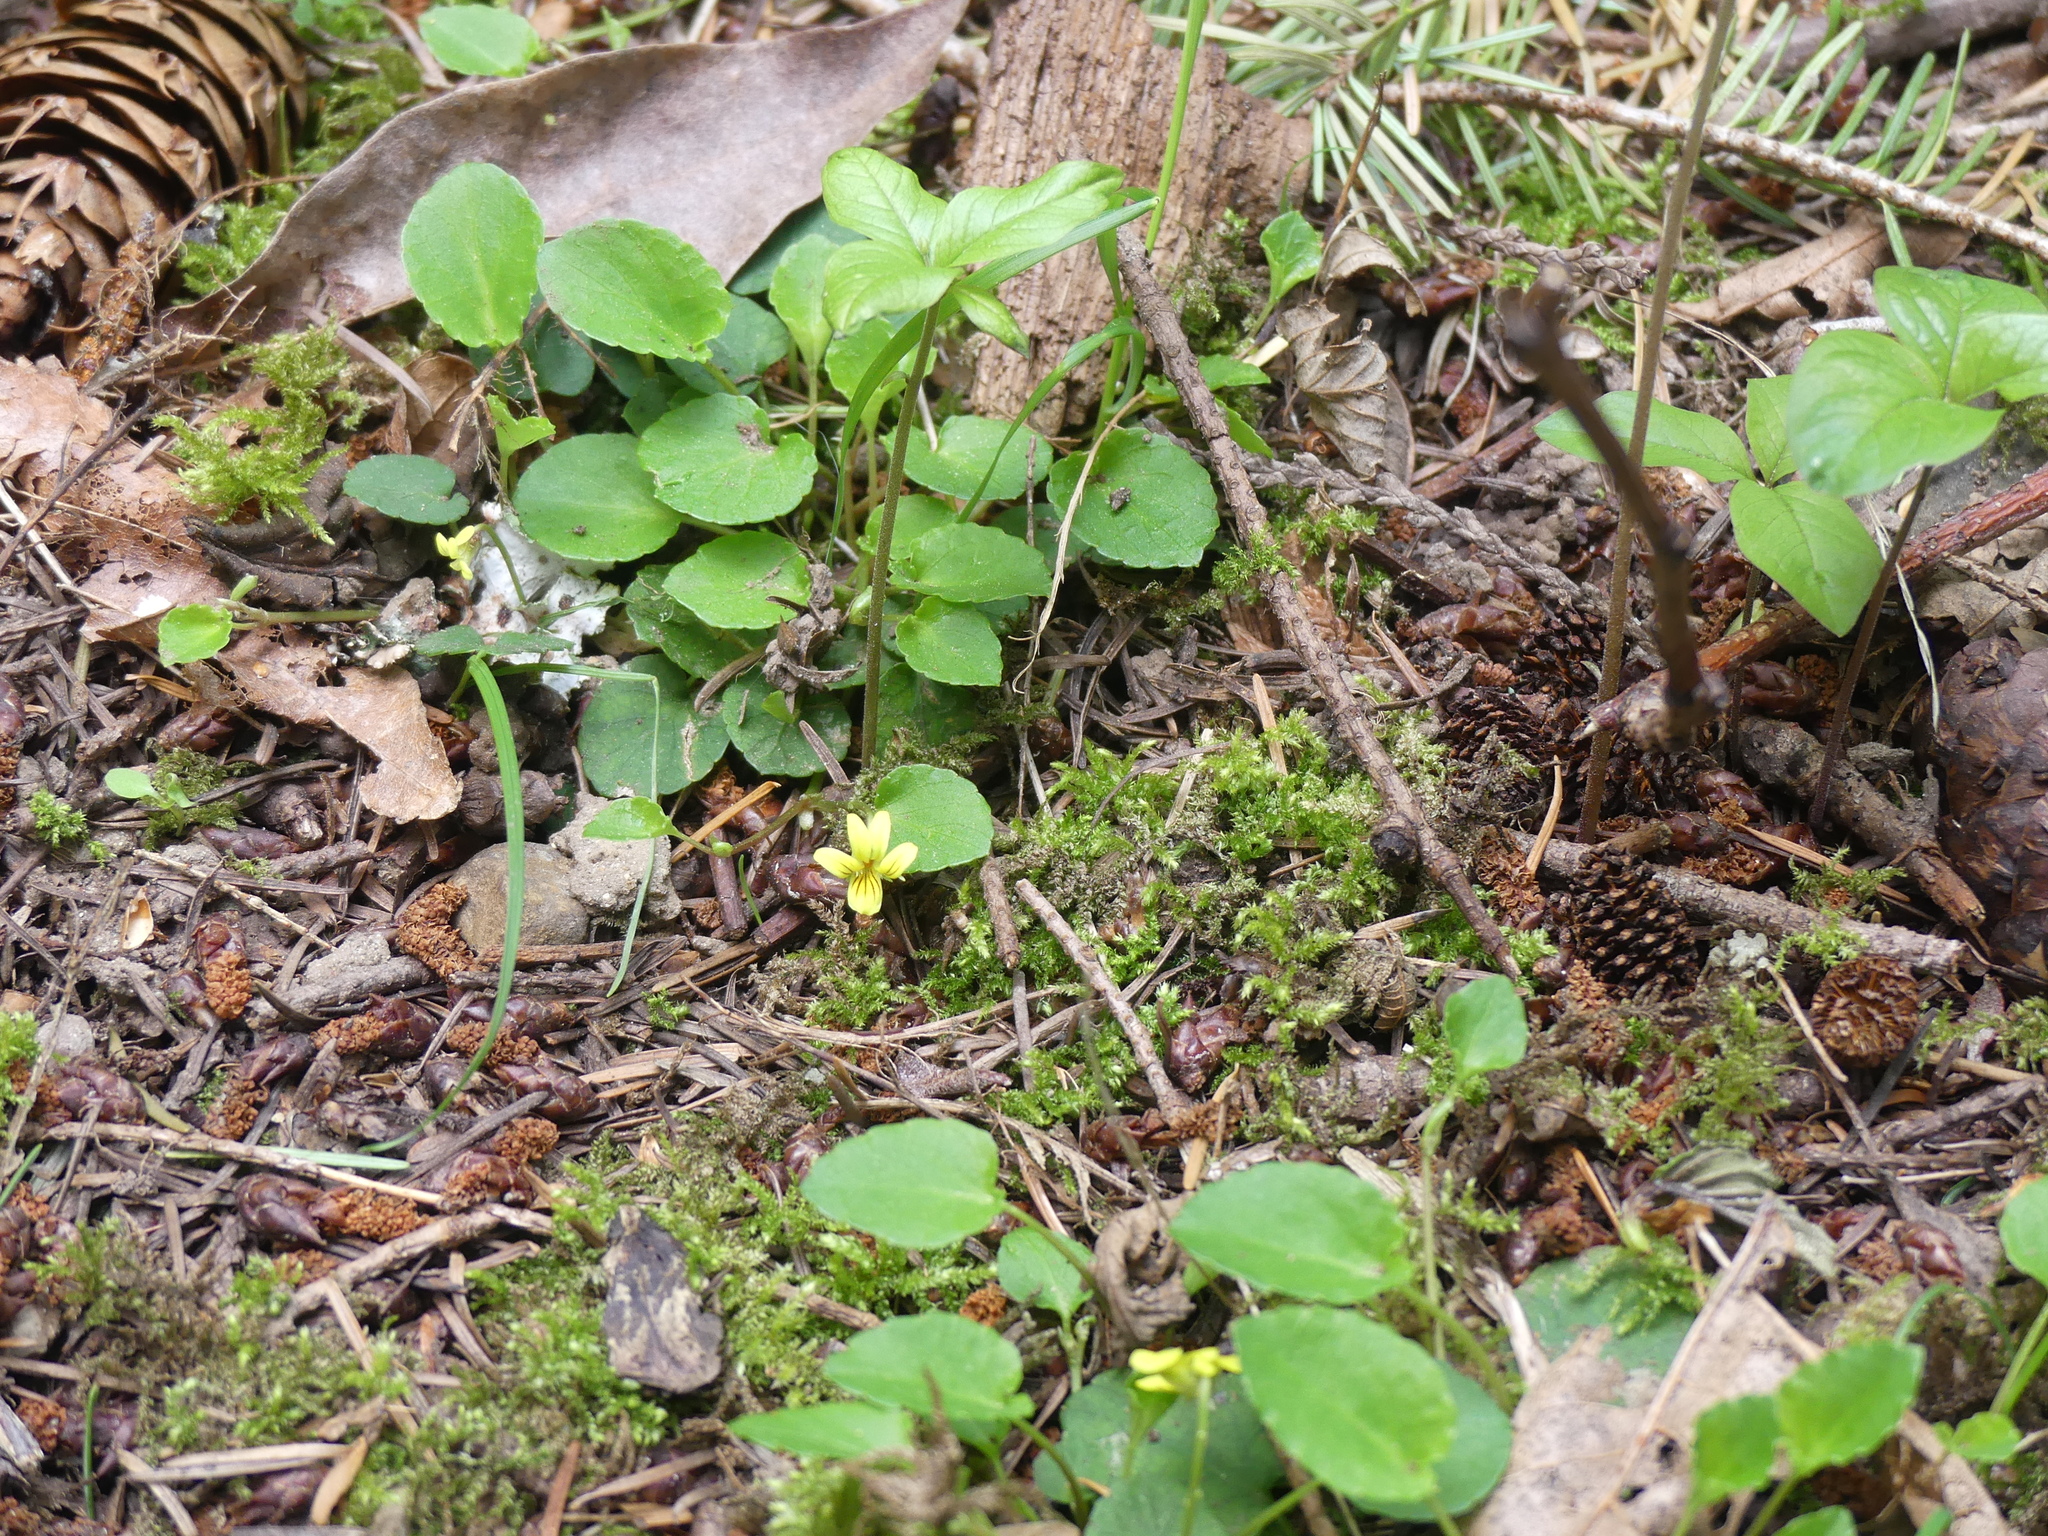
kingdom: Plantae
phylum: Tracheophyta
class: Magnoliopsida
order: Malpighiales
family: Violaceae
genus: Viola
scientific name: Viola sempervirens
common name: Evergreen violet
